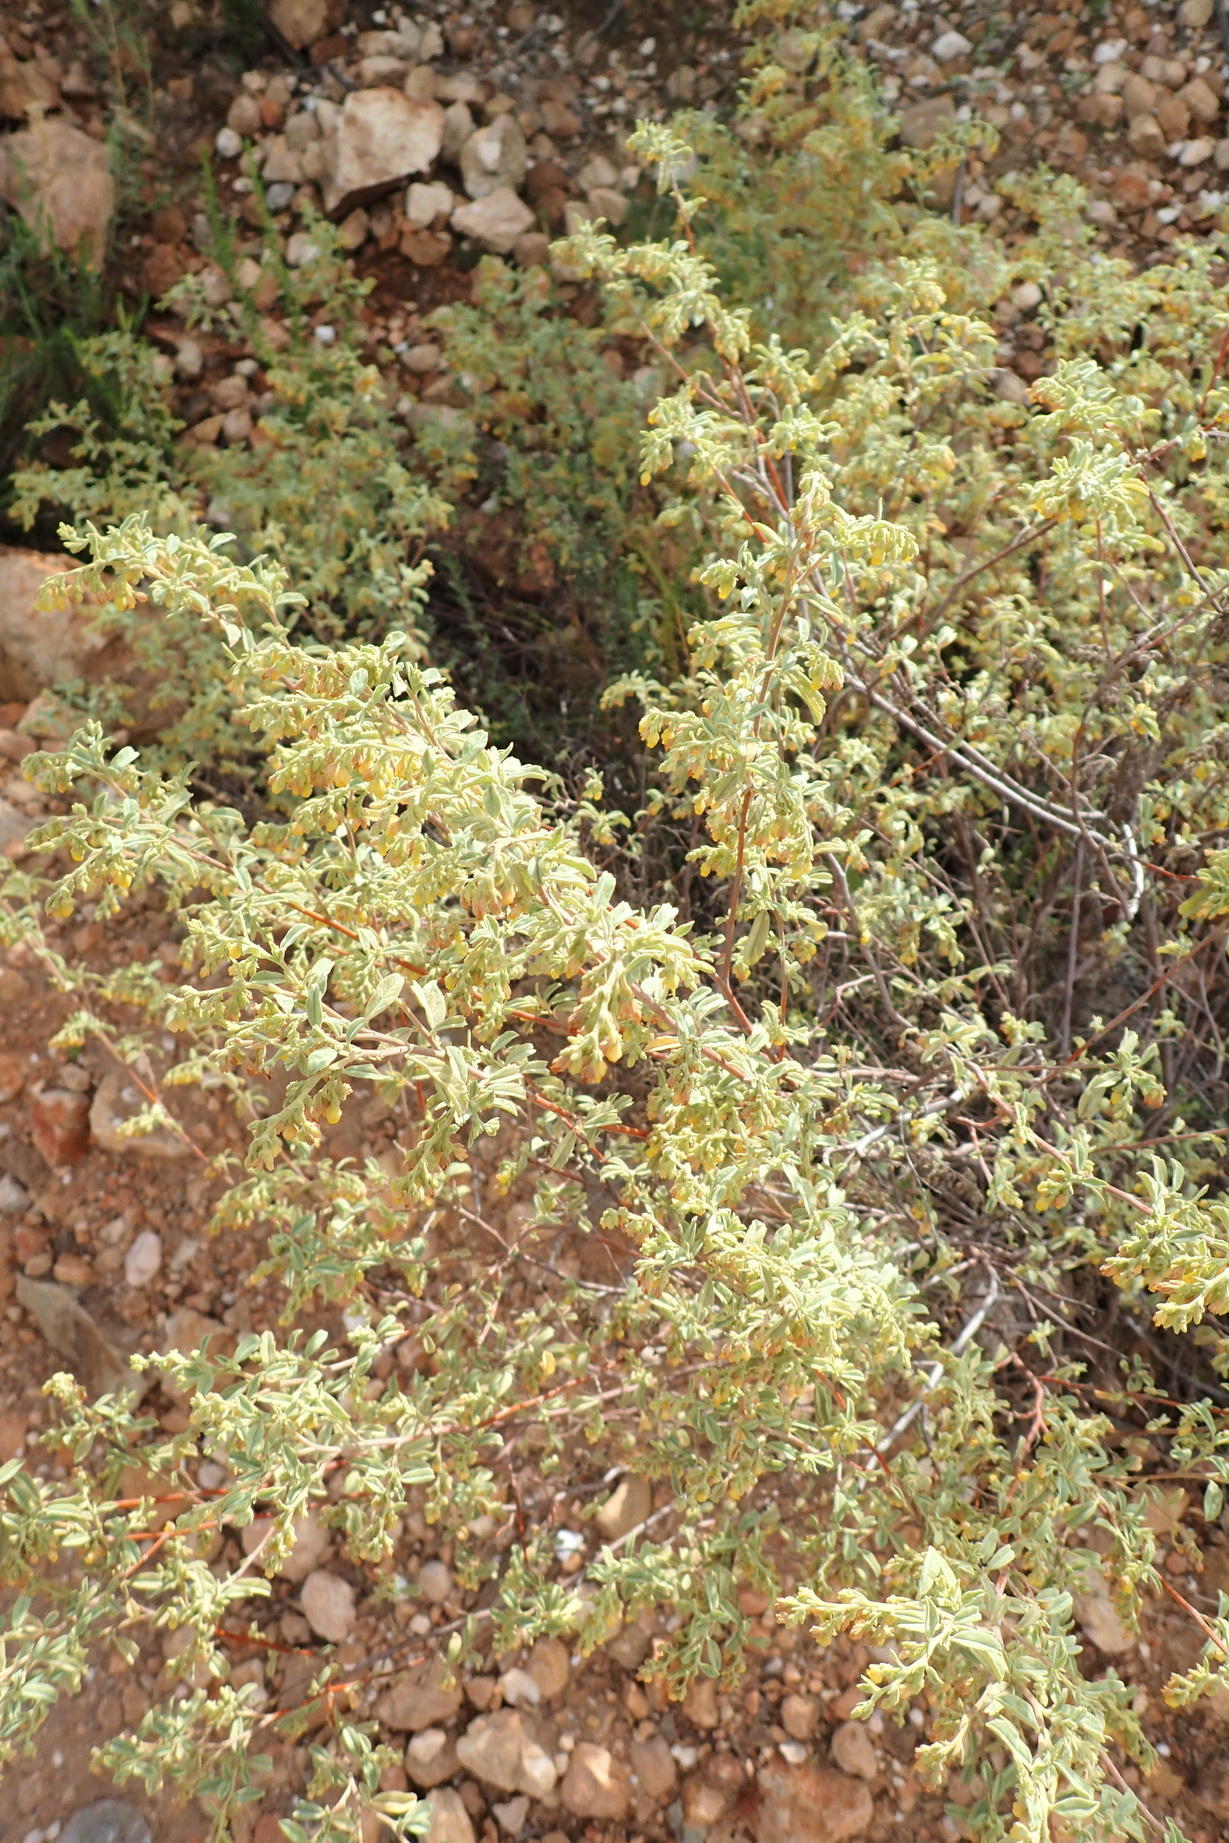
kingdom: Plantae
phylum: Tracheophyta
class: Magnoliopsida
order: Malvales
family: Malvaceae
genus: Hermannia
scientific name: Hermannia holosericea
